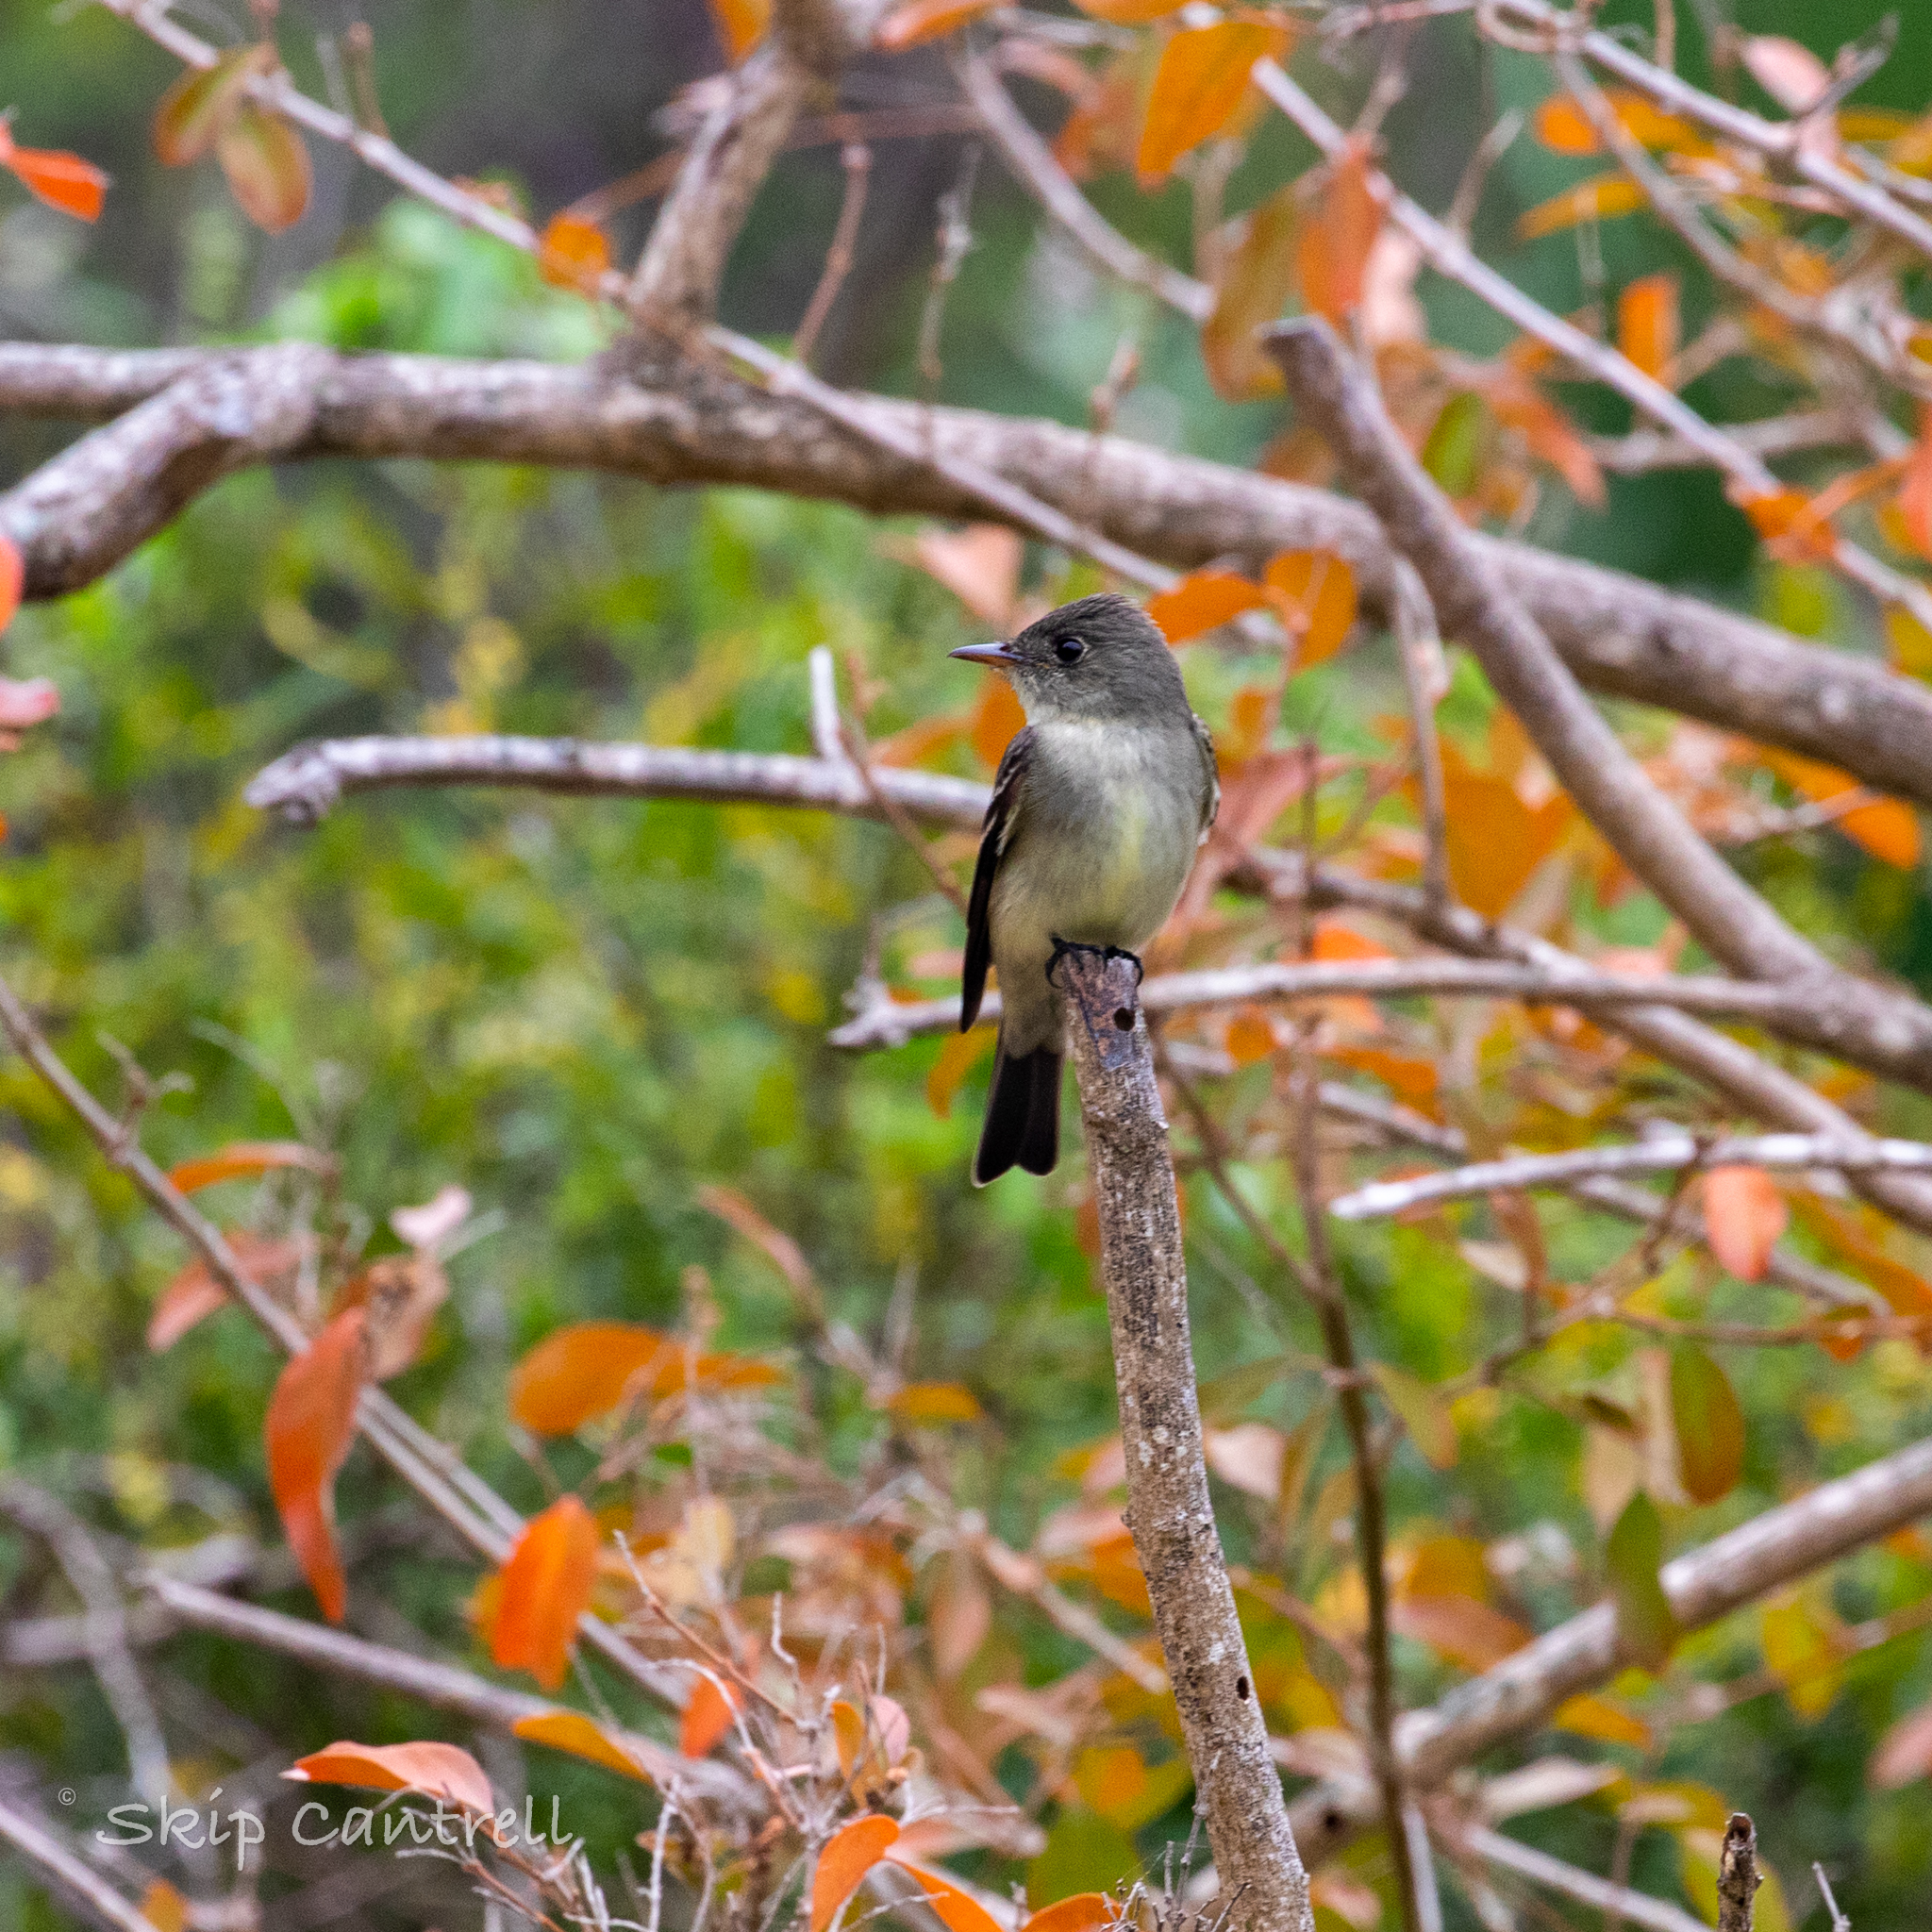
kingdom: Animalia
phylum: Chordata
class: Aves
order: Passeriformes
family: Tyrannidae
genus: Contopus
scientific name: Contopus virens
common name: Eastern wood-pewee
